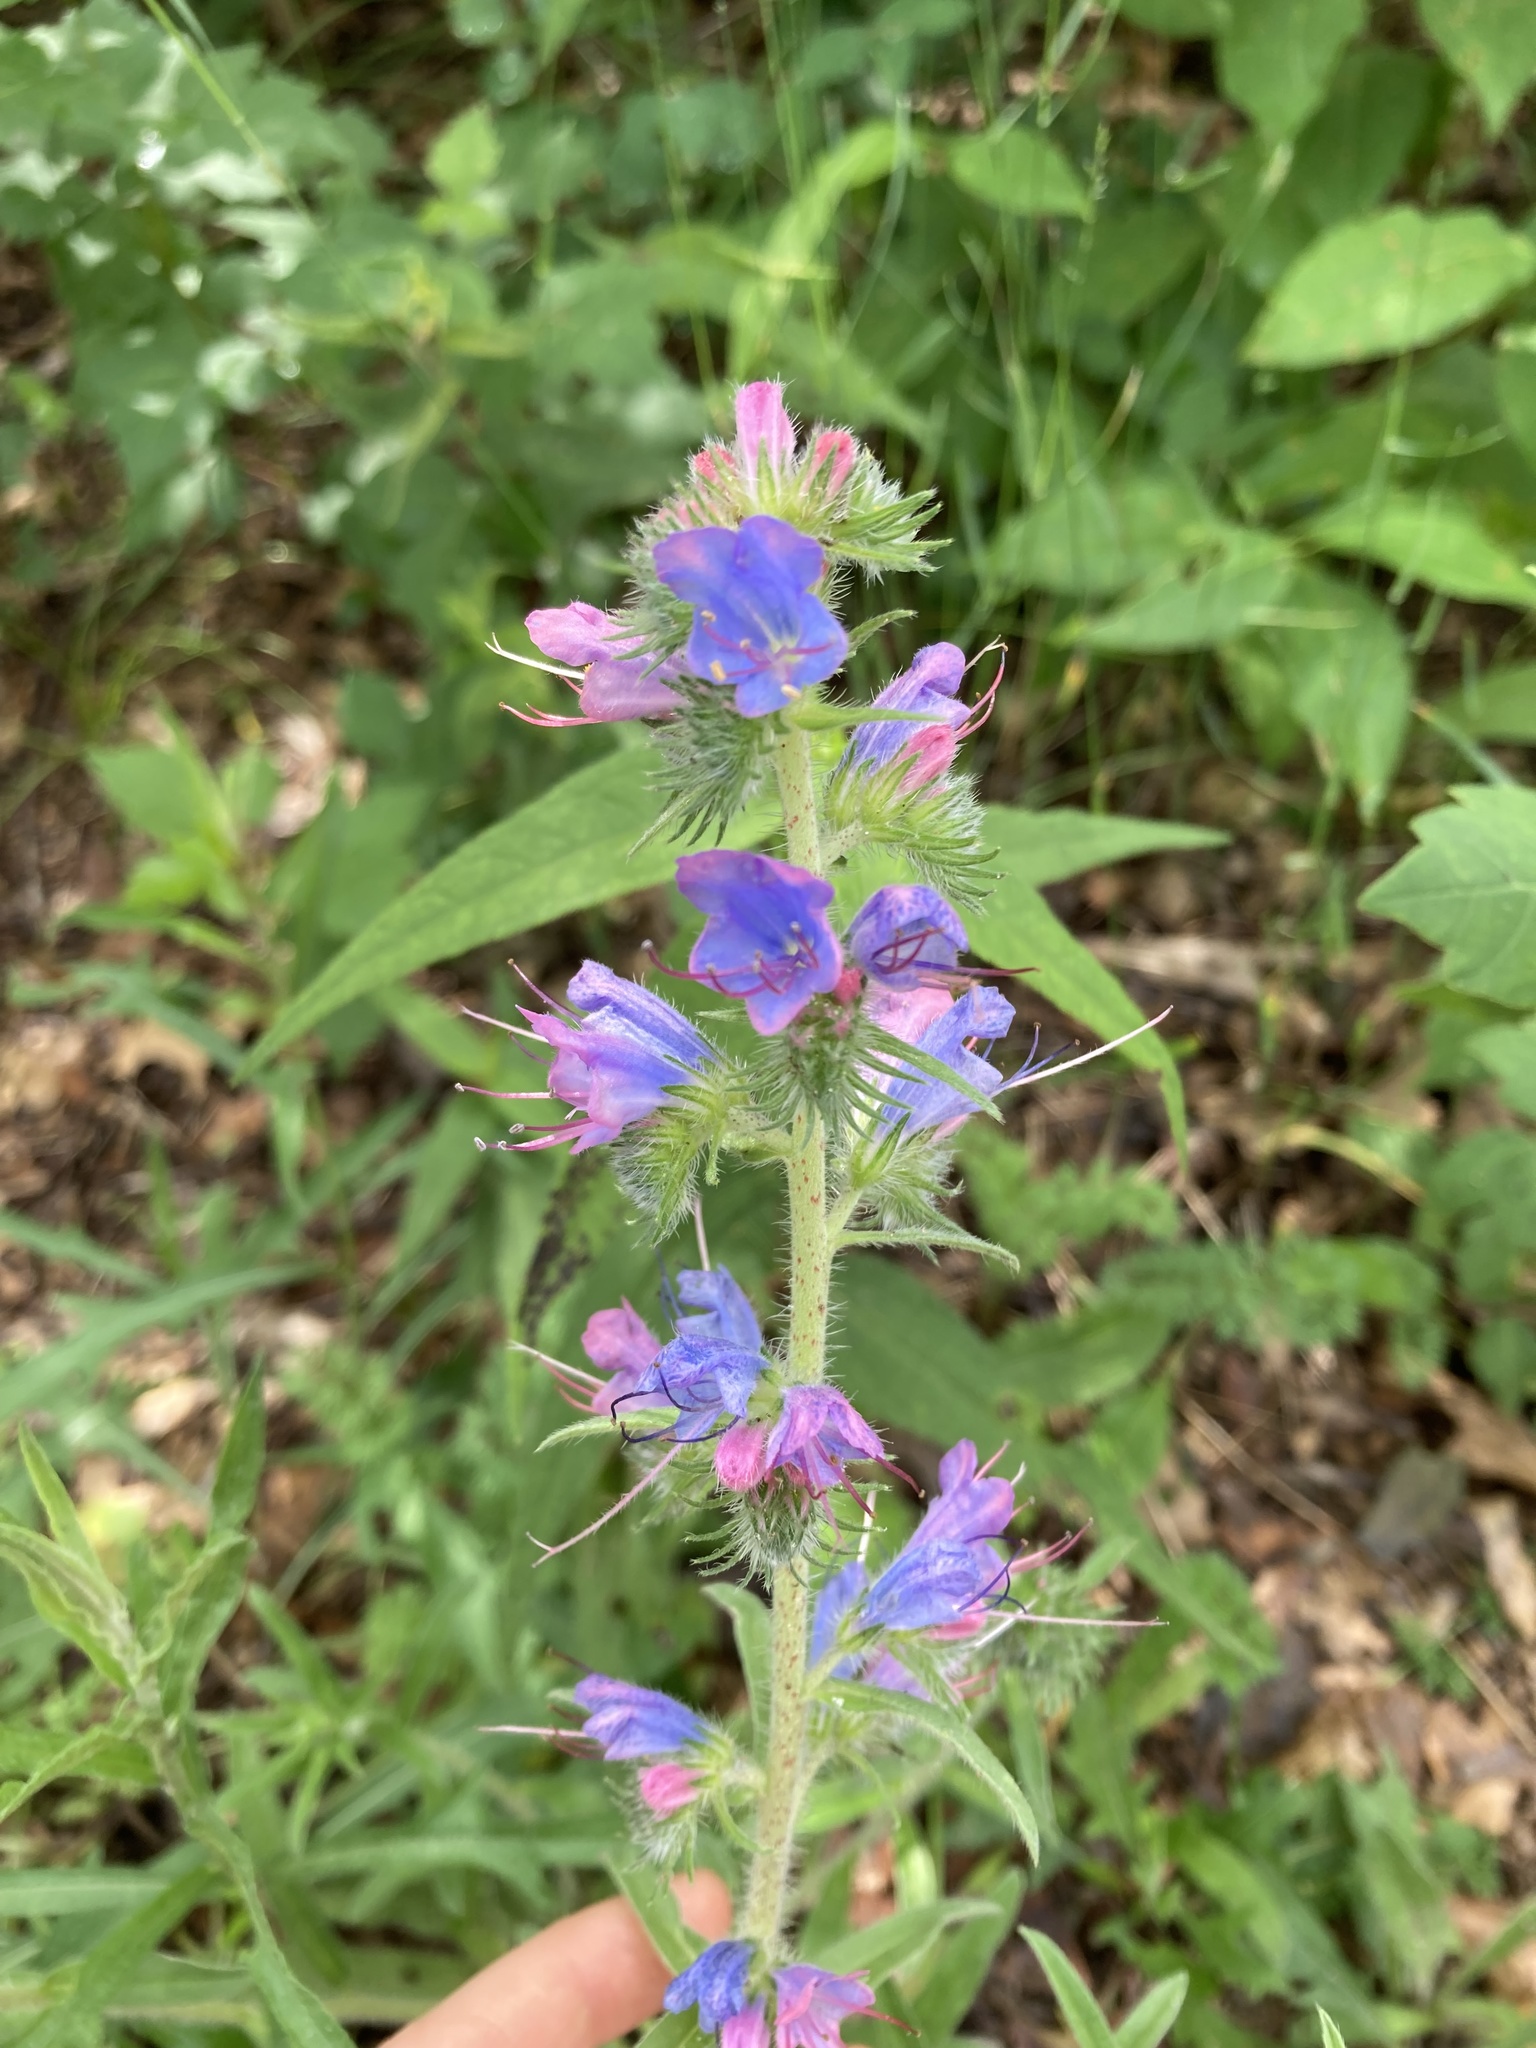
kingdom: Plantae
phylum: Tracheophyta
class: Magnoliopsida
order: Boraginales
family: Boraginaceae
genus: Echium
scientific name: Echium vulgare
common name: Common viper's bugloss
